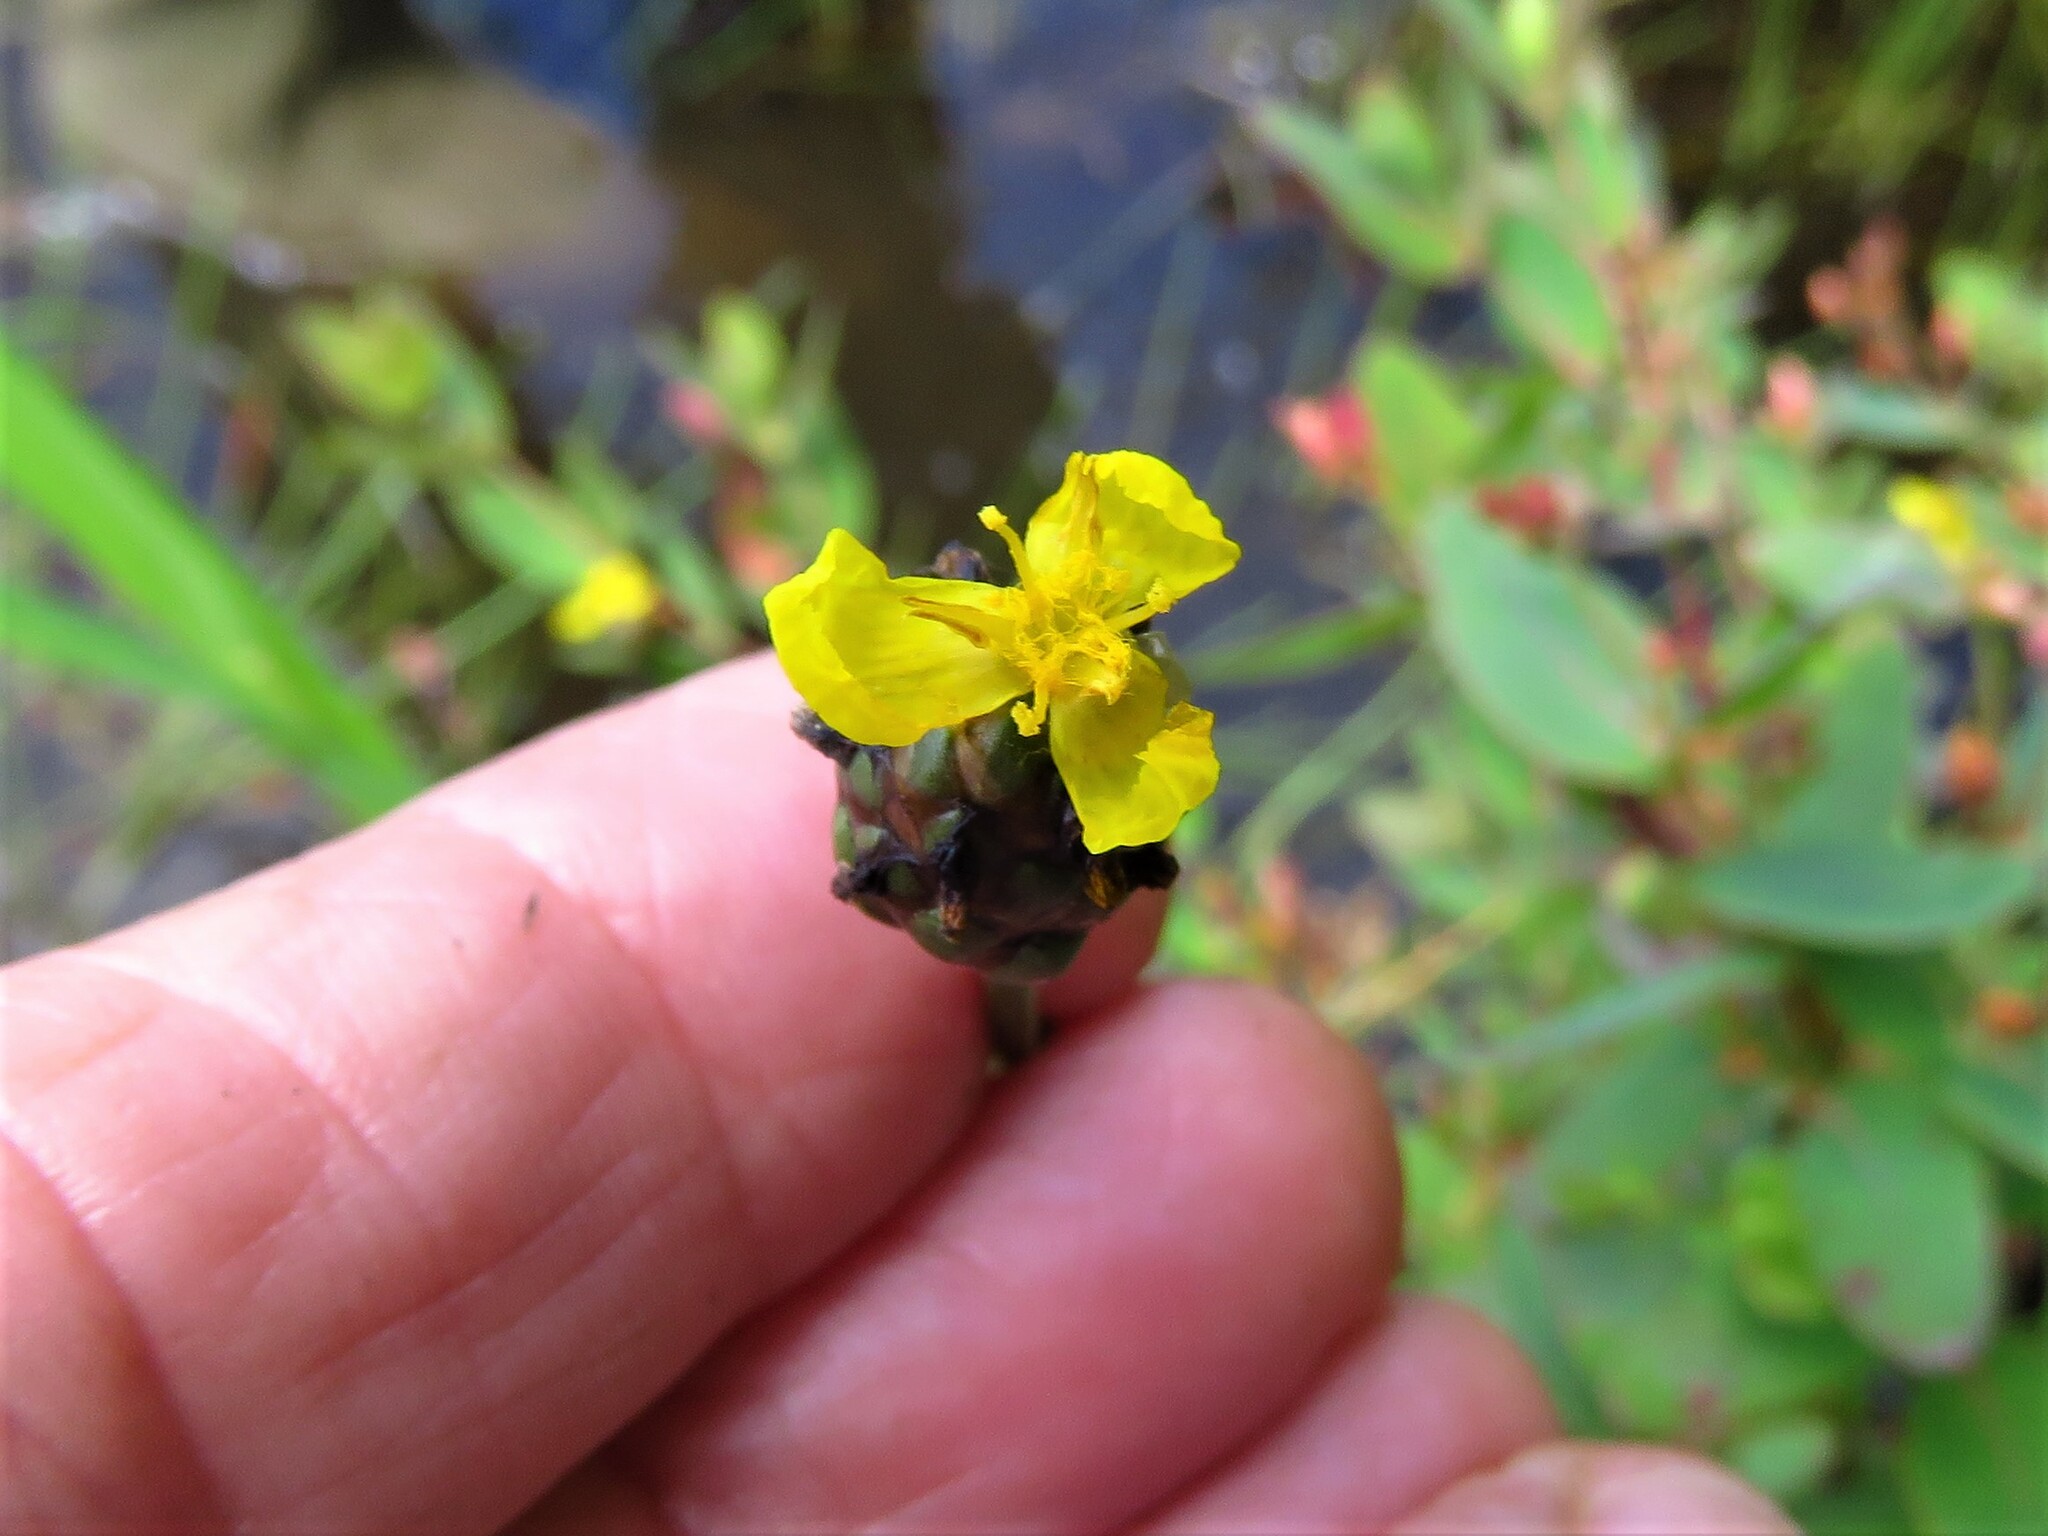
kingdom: Plantae
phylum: Tracheophyta
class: Liliopsida
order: Poales
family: Xyridaceae
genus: Xyris
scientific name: Xyris difformis
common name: Bog yellow-eyed-grass
